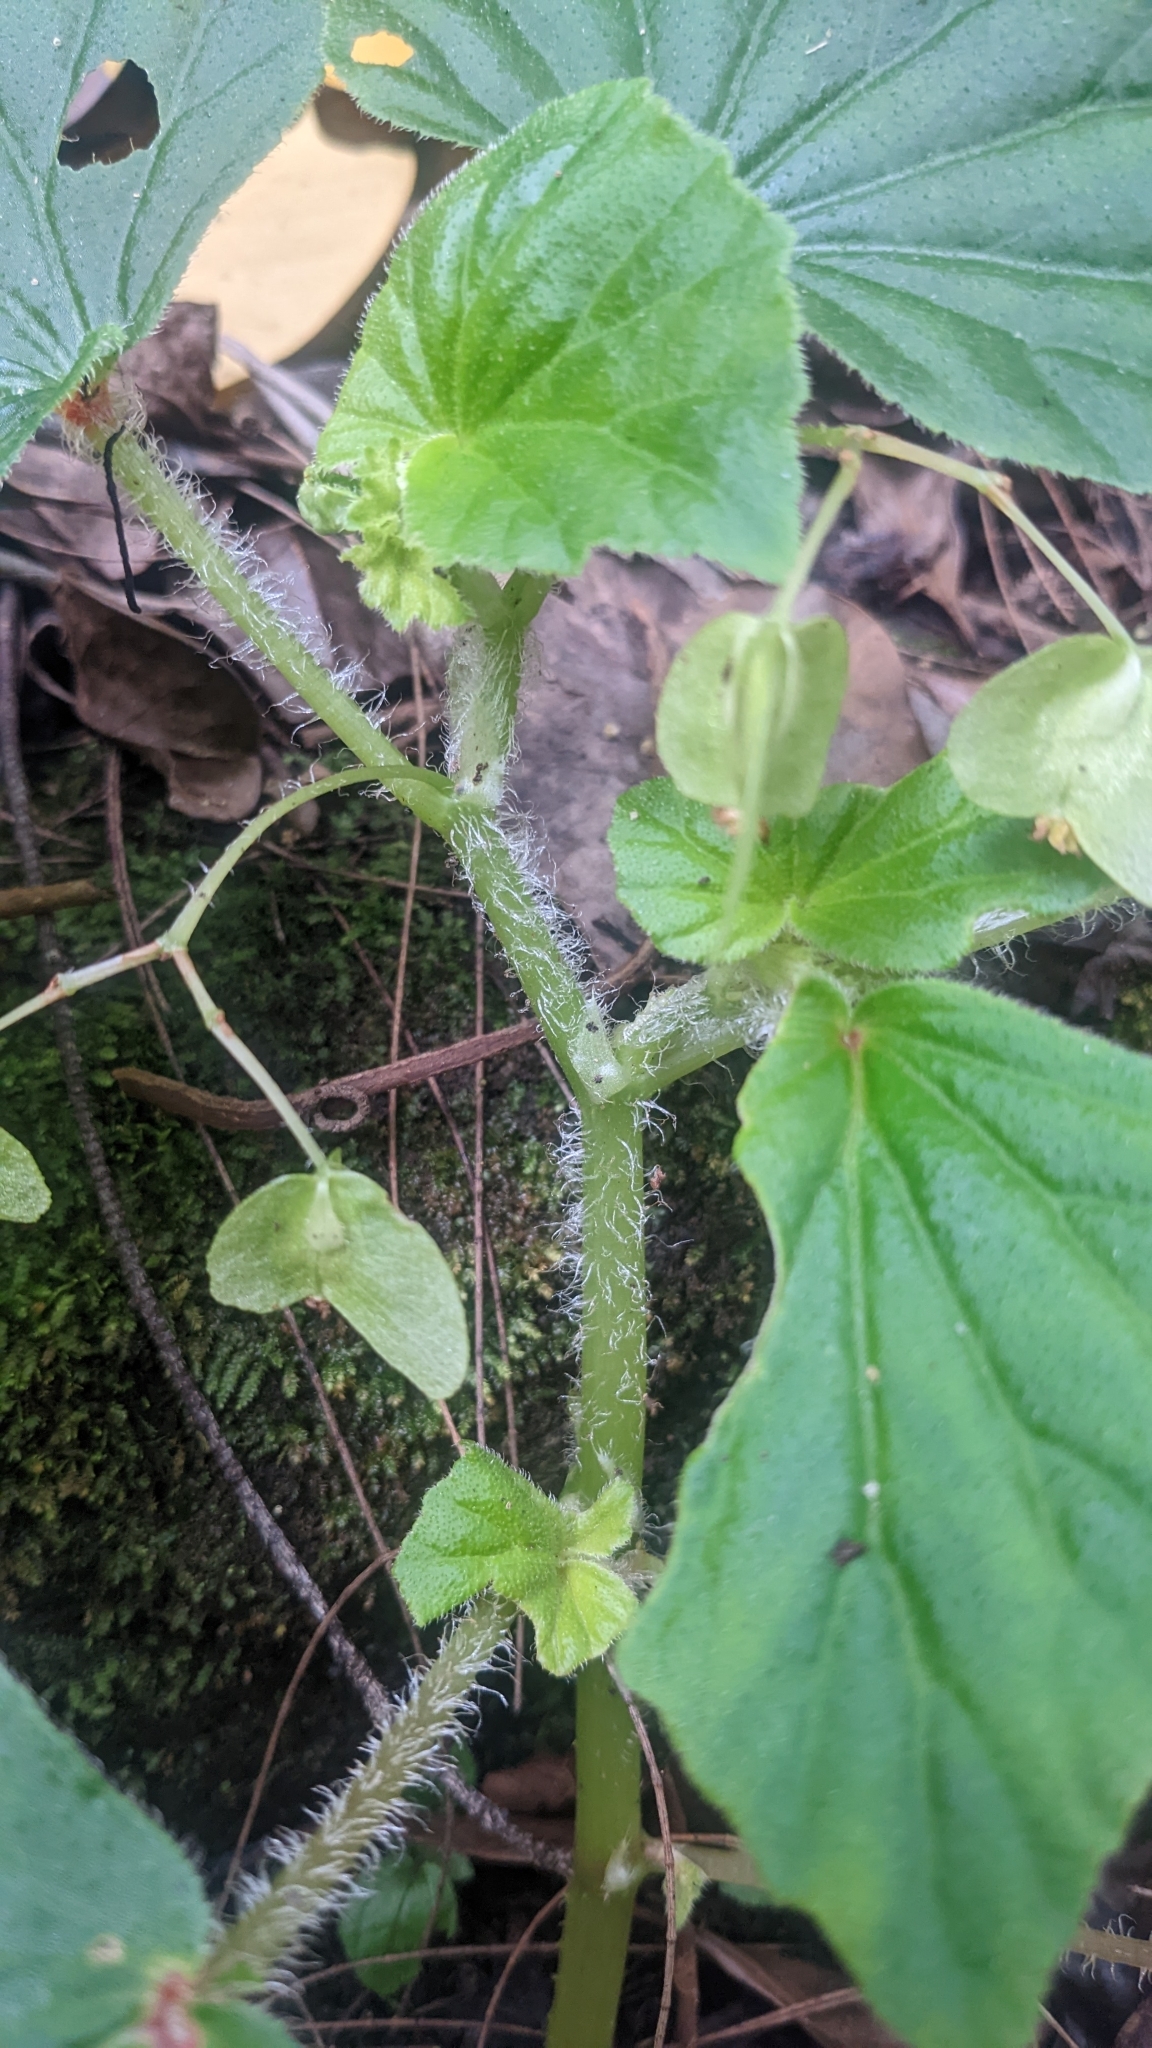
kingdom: Plantae
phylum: Tracheophyta
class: Magnoliopsida
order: Cucurbitales
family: Begoniaceae
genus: Begonia
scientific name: Begonia hirtella
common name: Brazilian begonia
